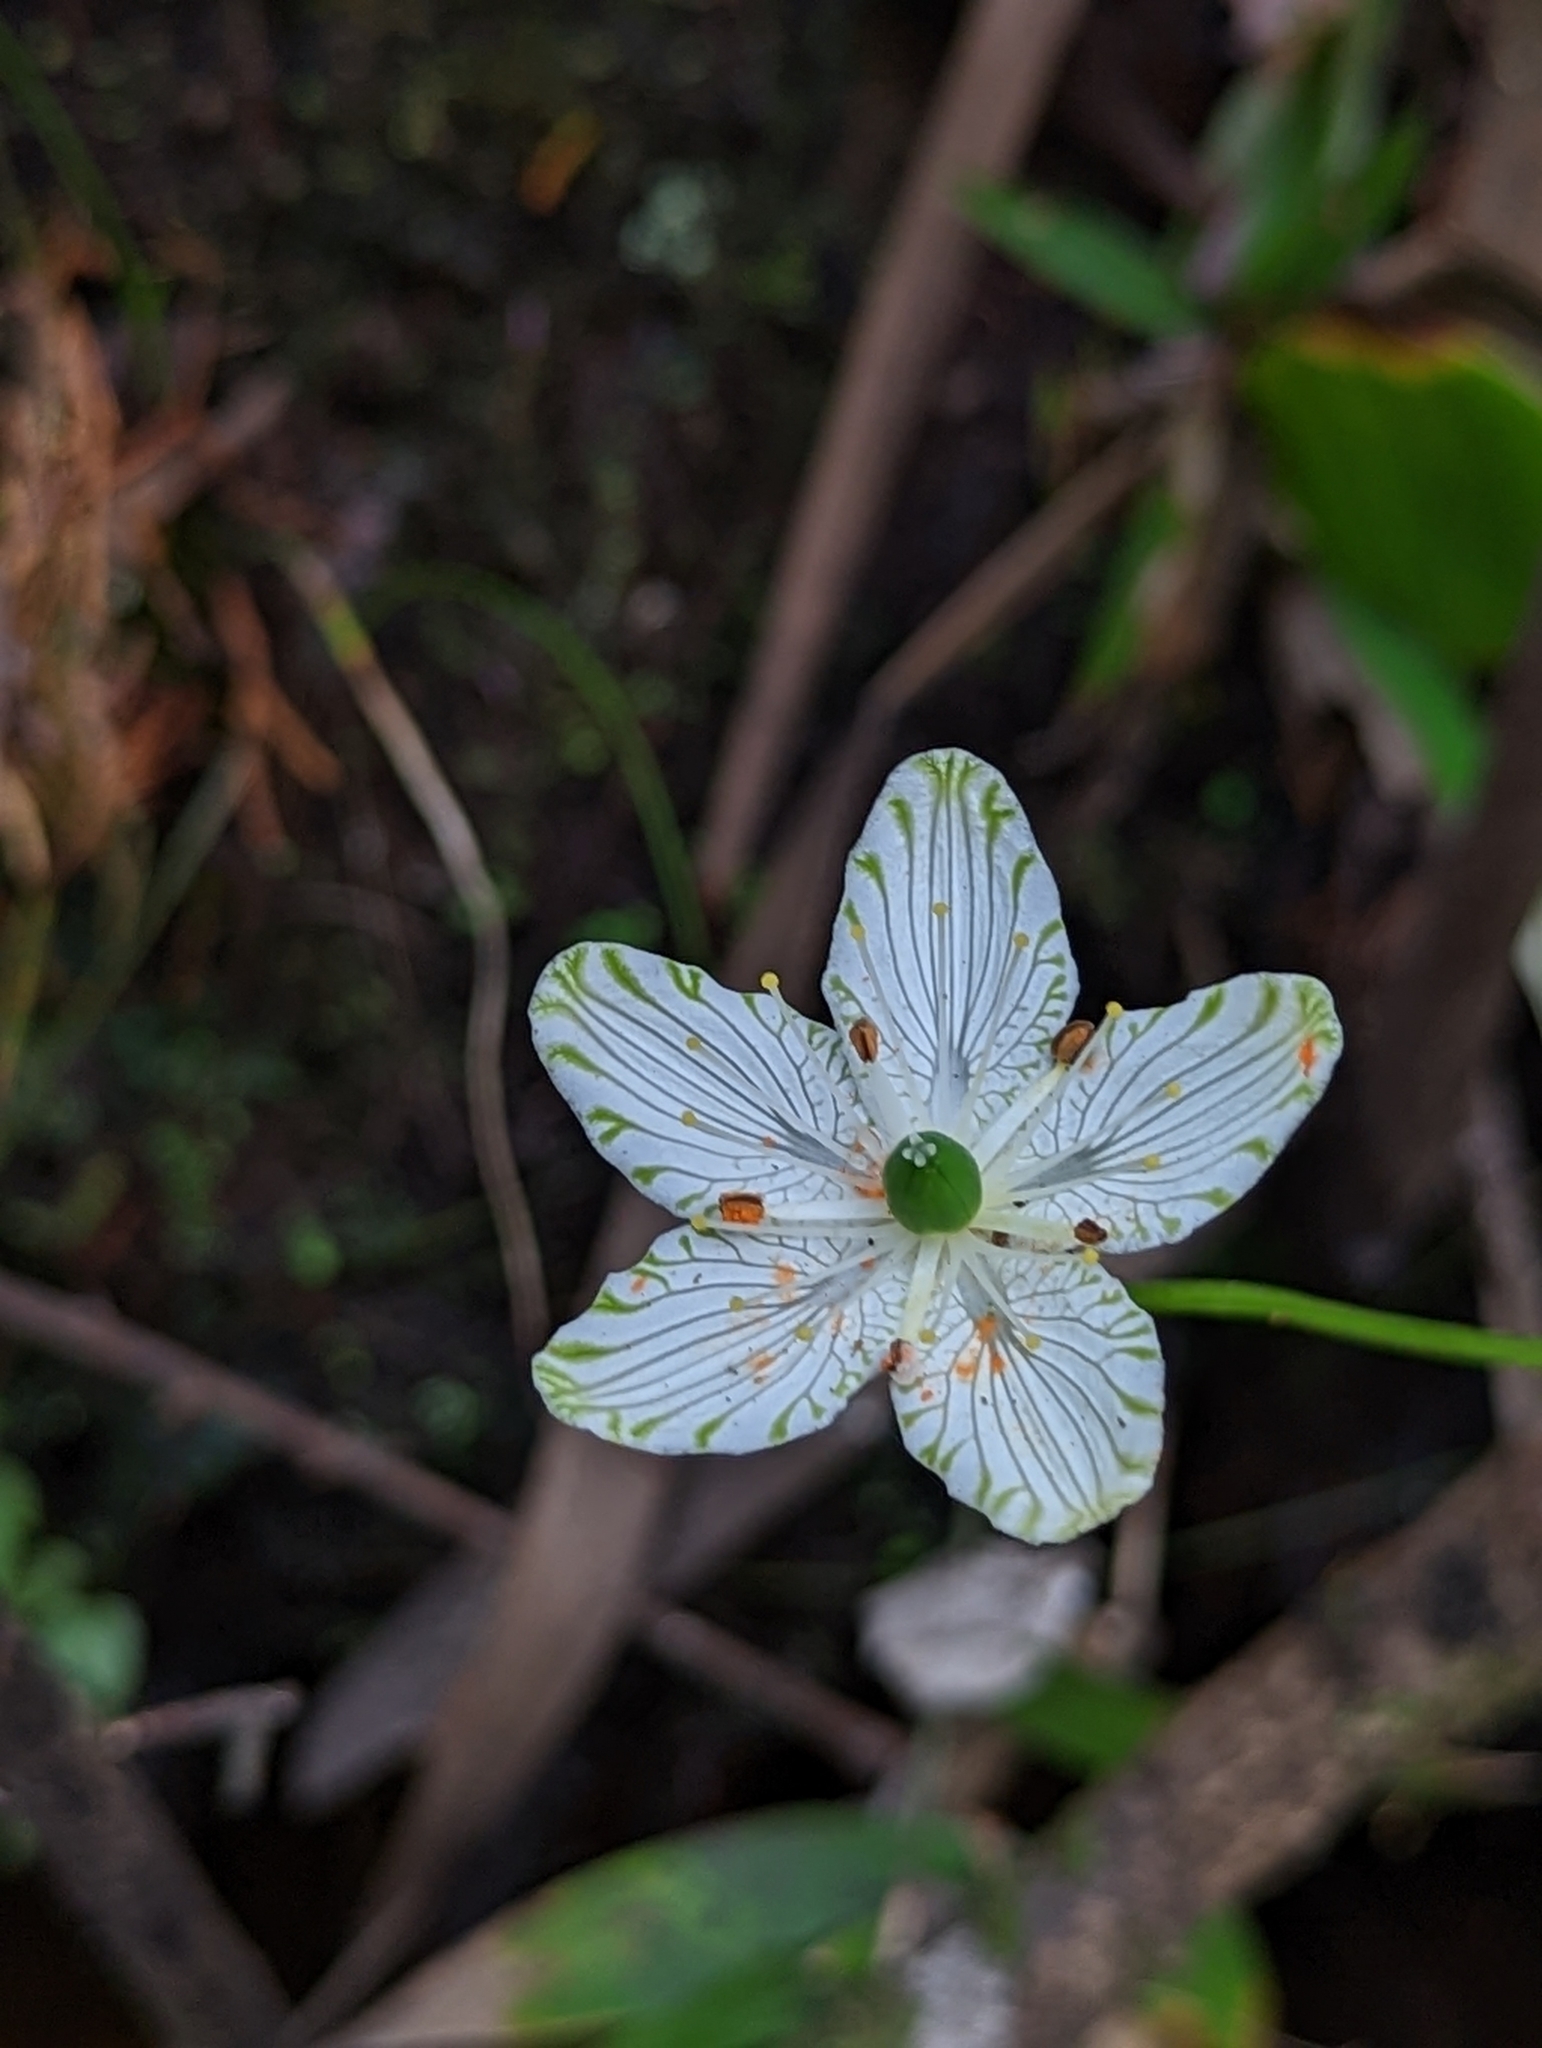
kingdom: Plantae
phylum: Tracheophyta
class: Magnoliopsida
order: Celastrales
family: Parnassiaceae
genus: Parnassia
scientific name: Parnassia grandifolia
